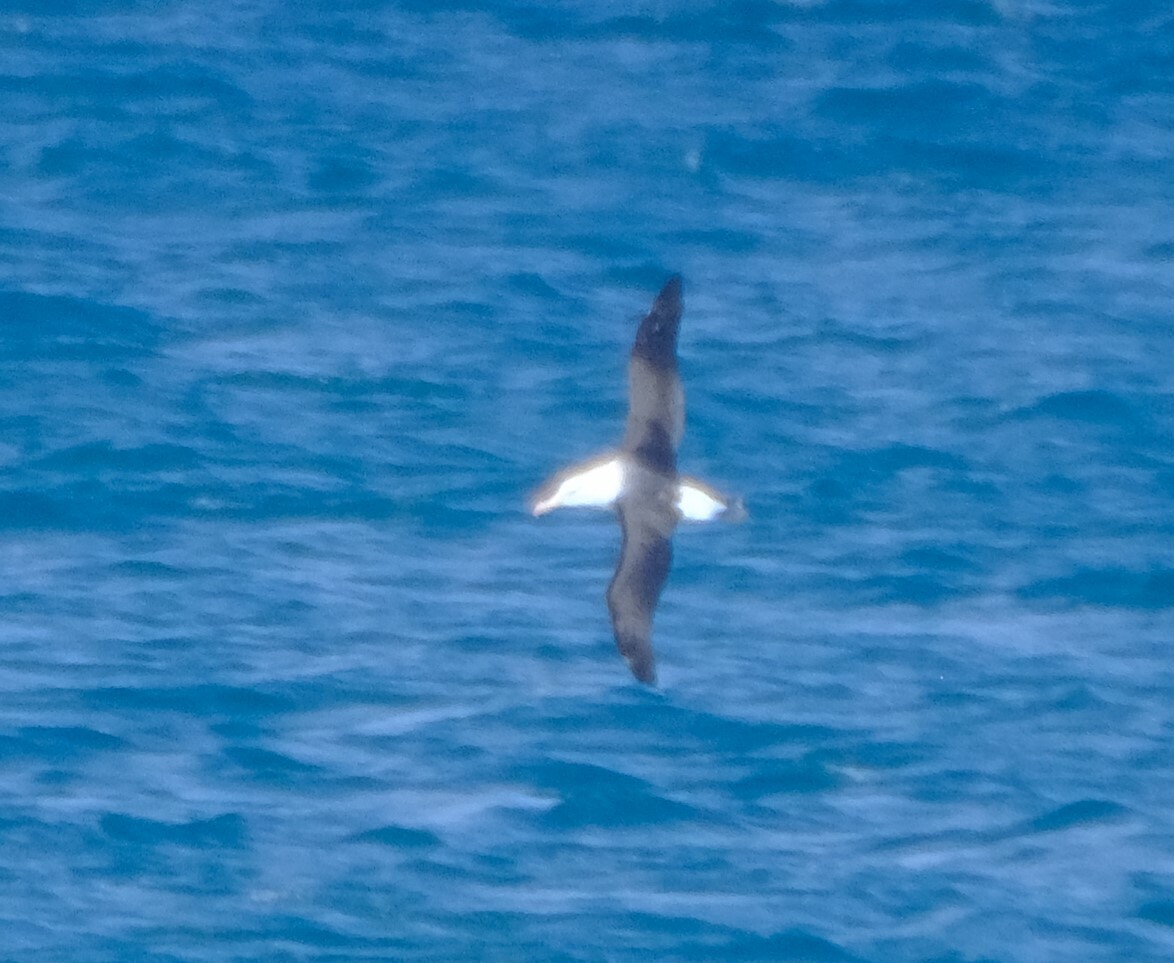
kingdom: Animalia
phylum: Chordata
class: Aves
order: Procellariiformes
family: Diomedeidae
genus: Thalassarche
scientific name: Thalassarche melanophris
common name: Black-browed albatross
